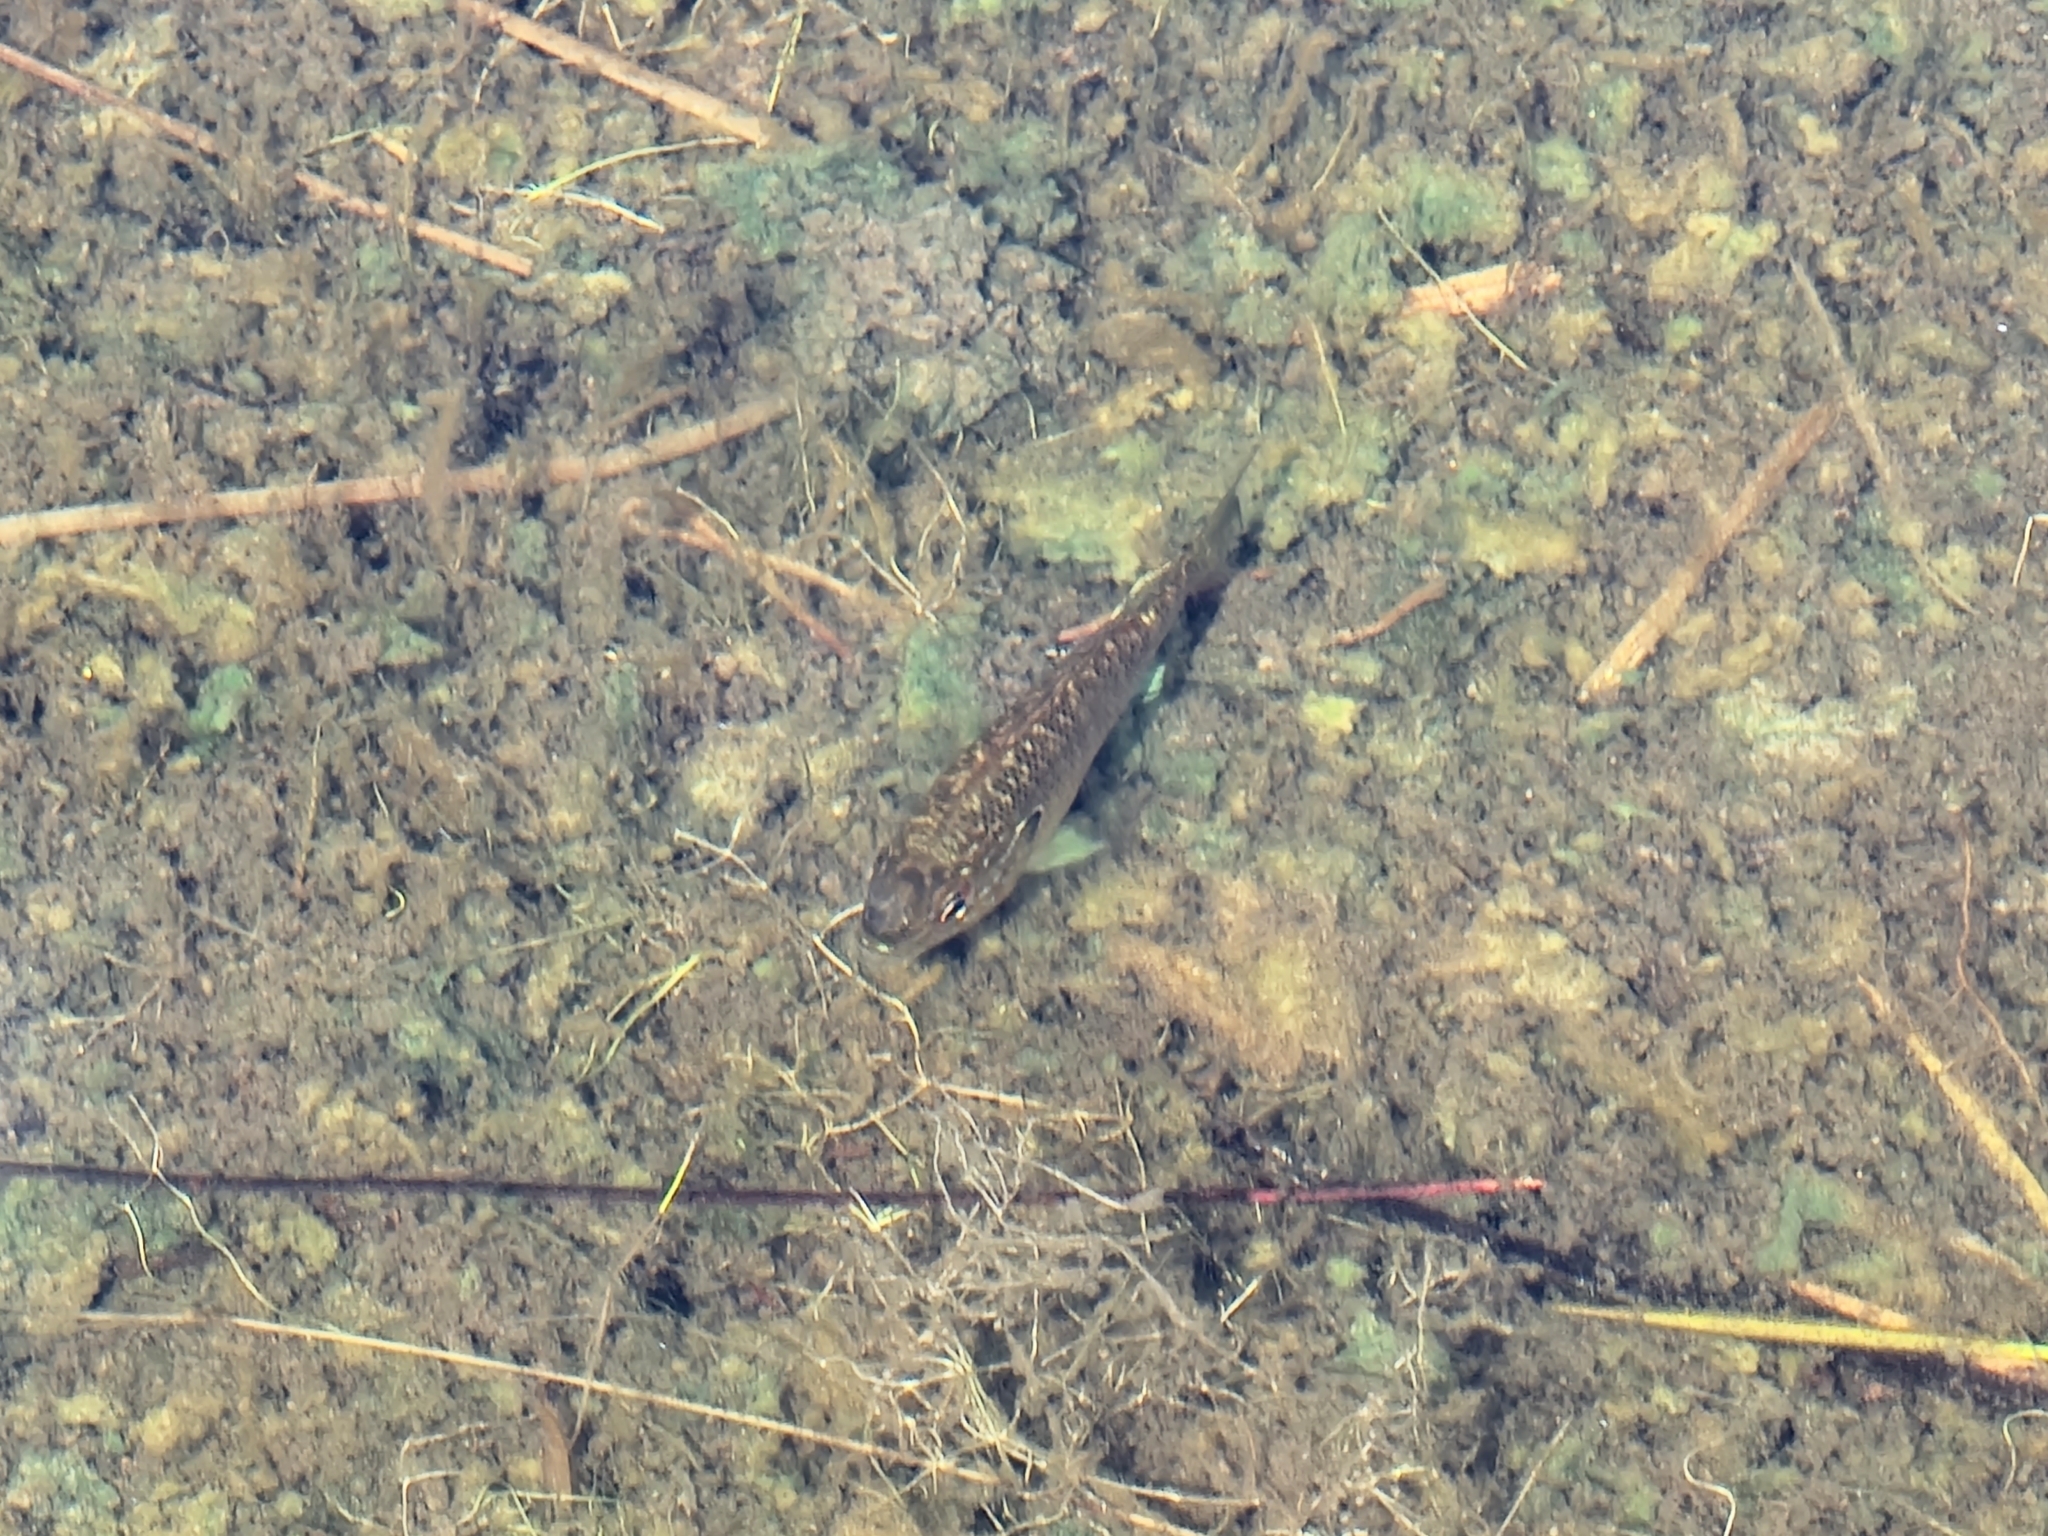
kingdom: Animalia
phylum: Chordata
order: Perciformes
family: Centrarchidae
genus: Lepomis
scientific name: Lepomis marginatus
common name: Dollar sunfish
